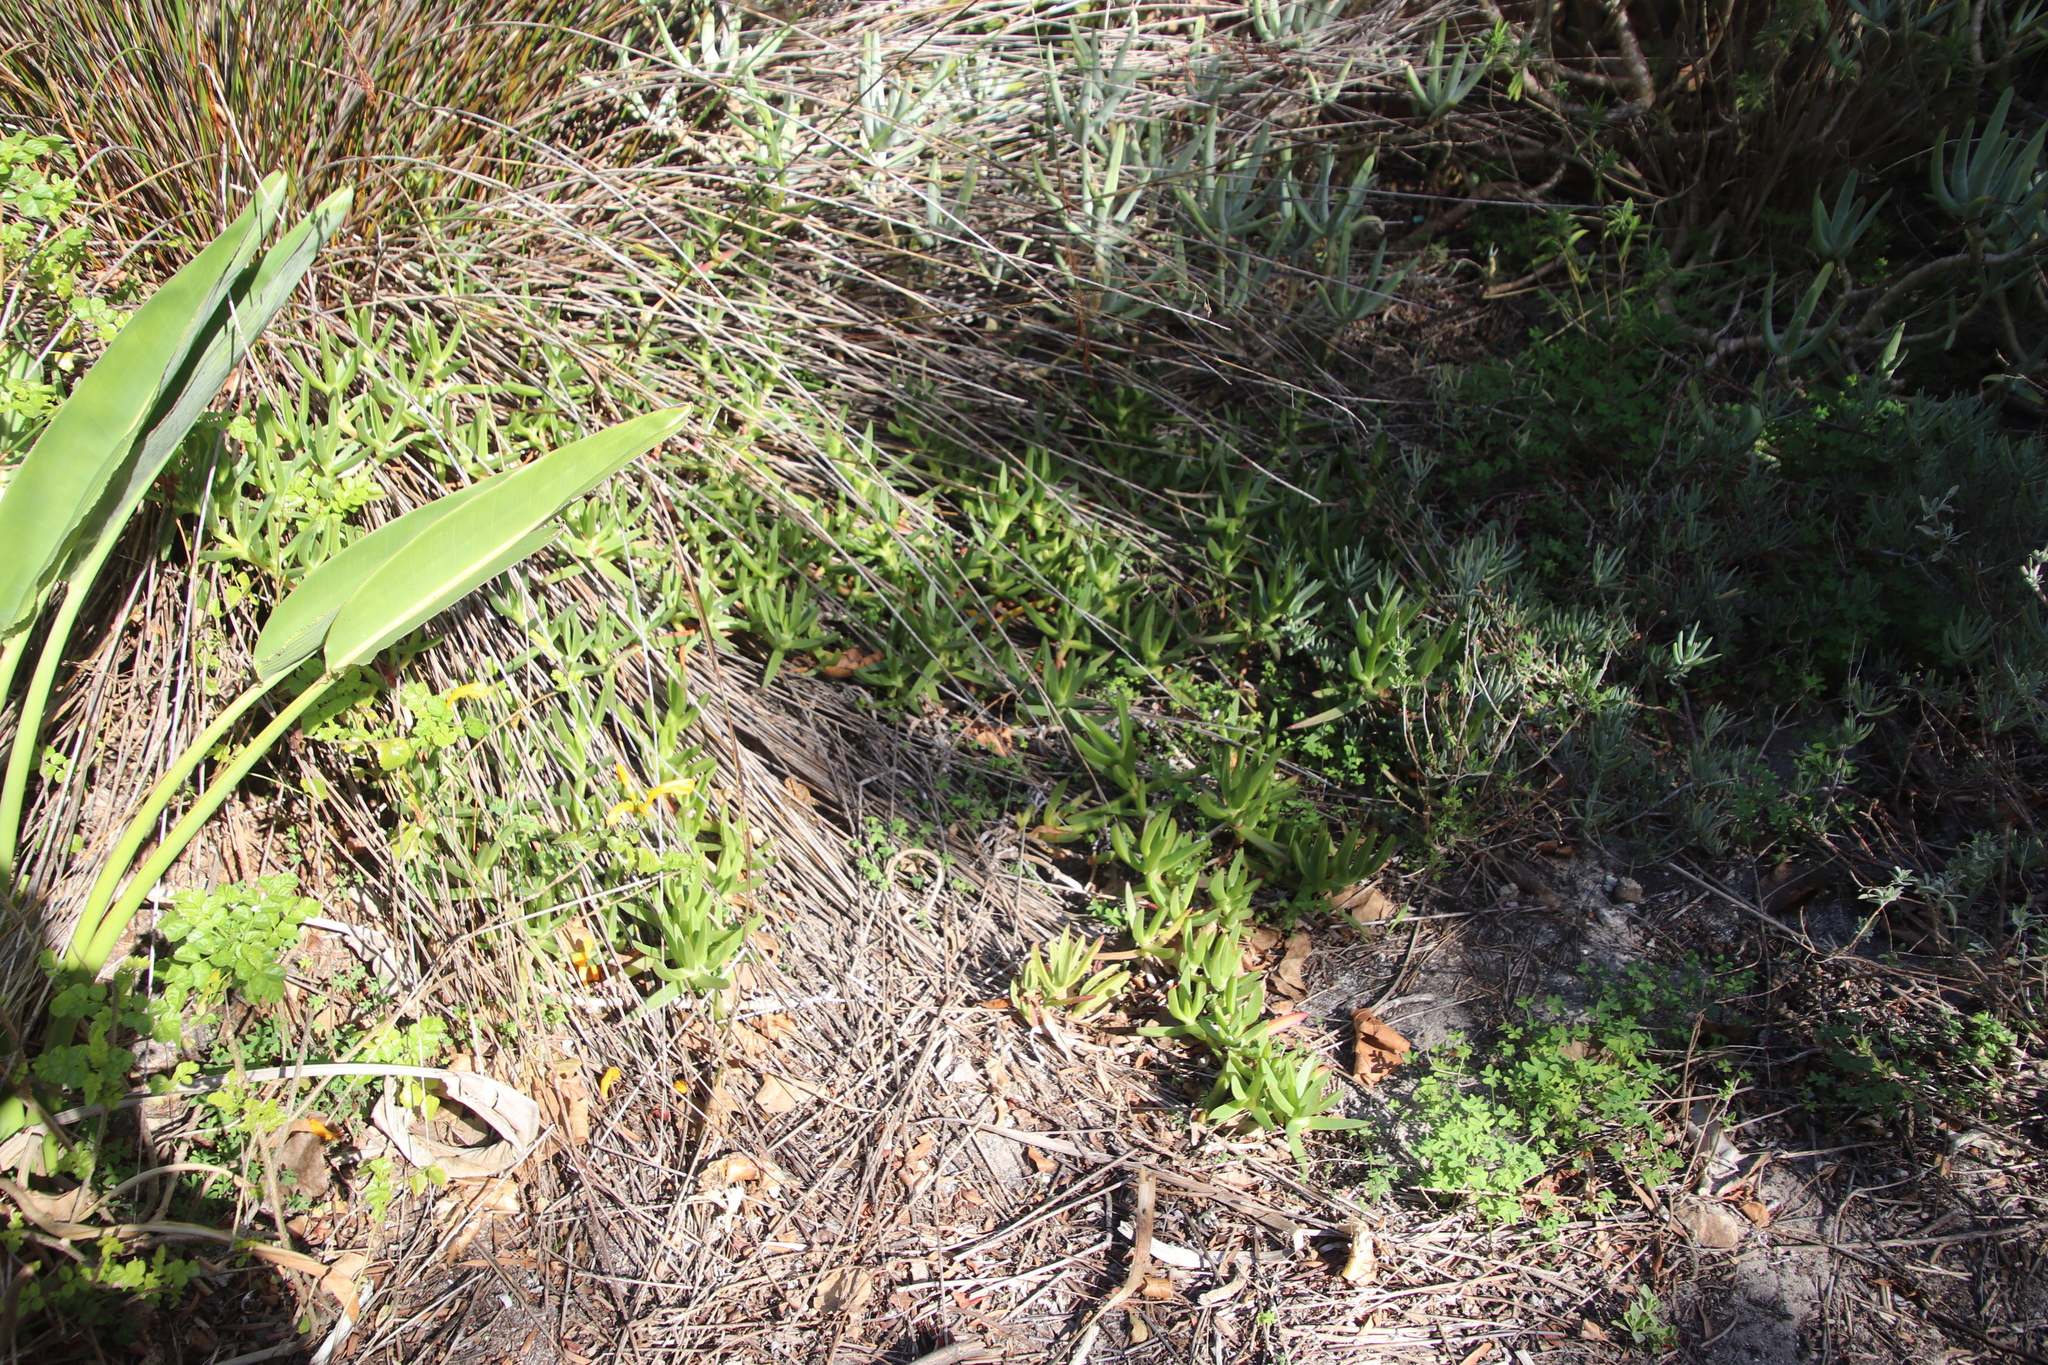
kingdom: Plantae
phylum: Tracheophyta
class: Magnoliopsida
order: Caryophyllales
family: Aizoaceae
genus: Carpobrotus
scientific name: Carpobrotus edulis
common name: Hottentot-fig
